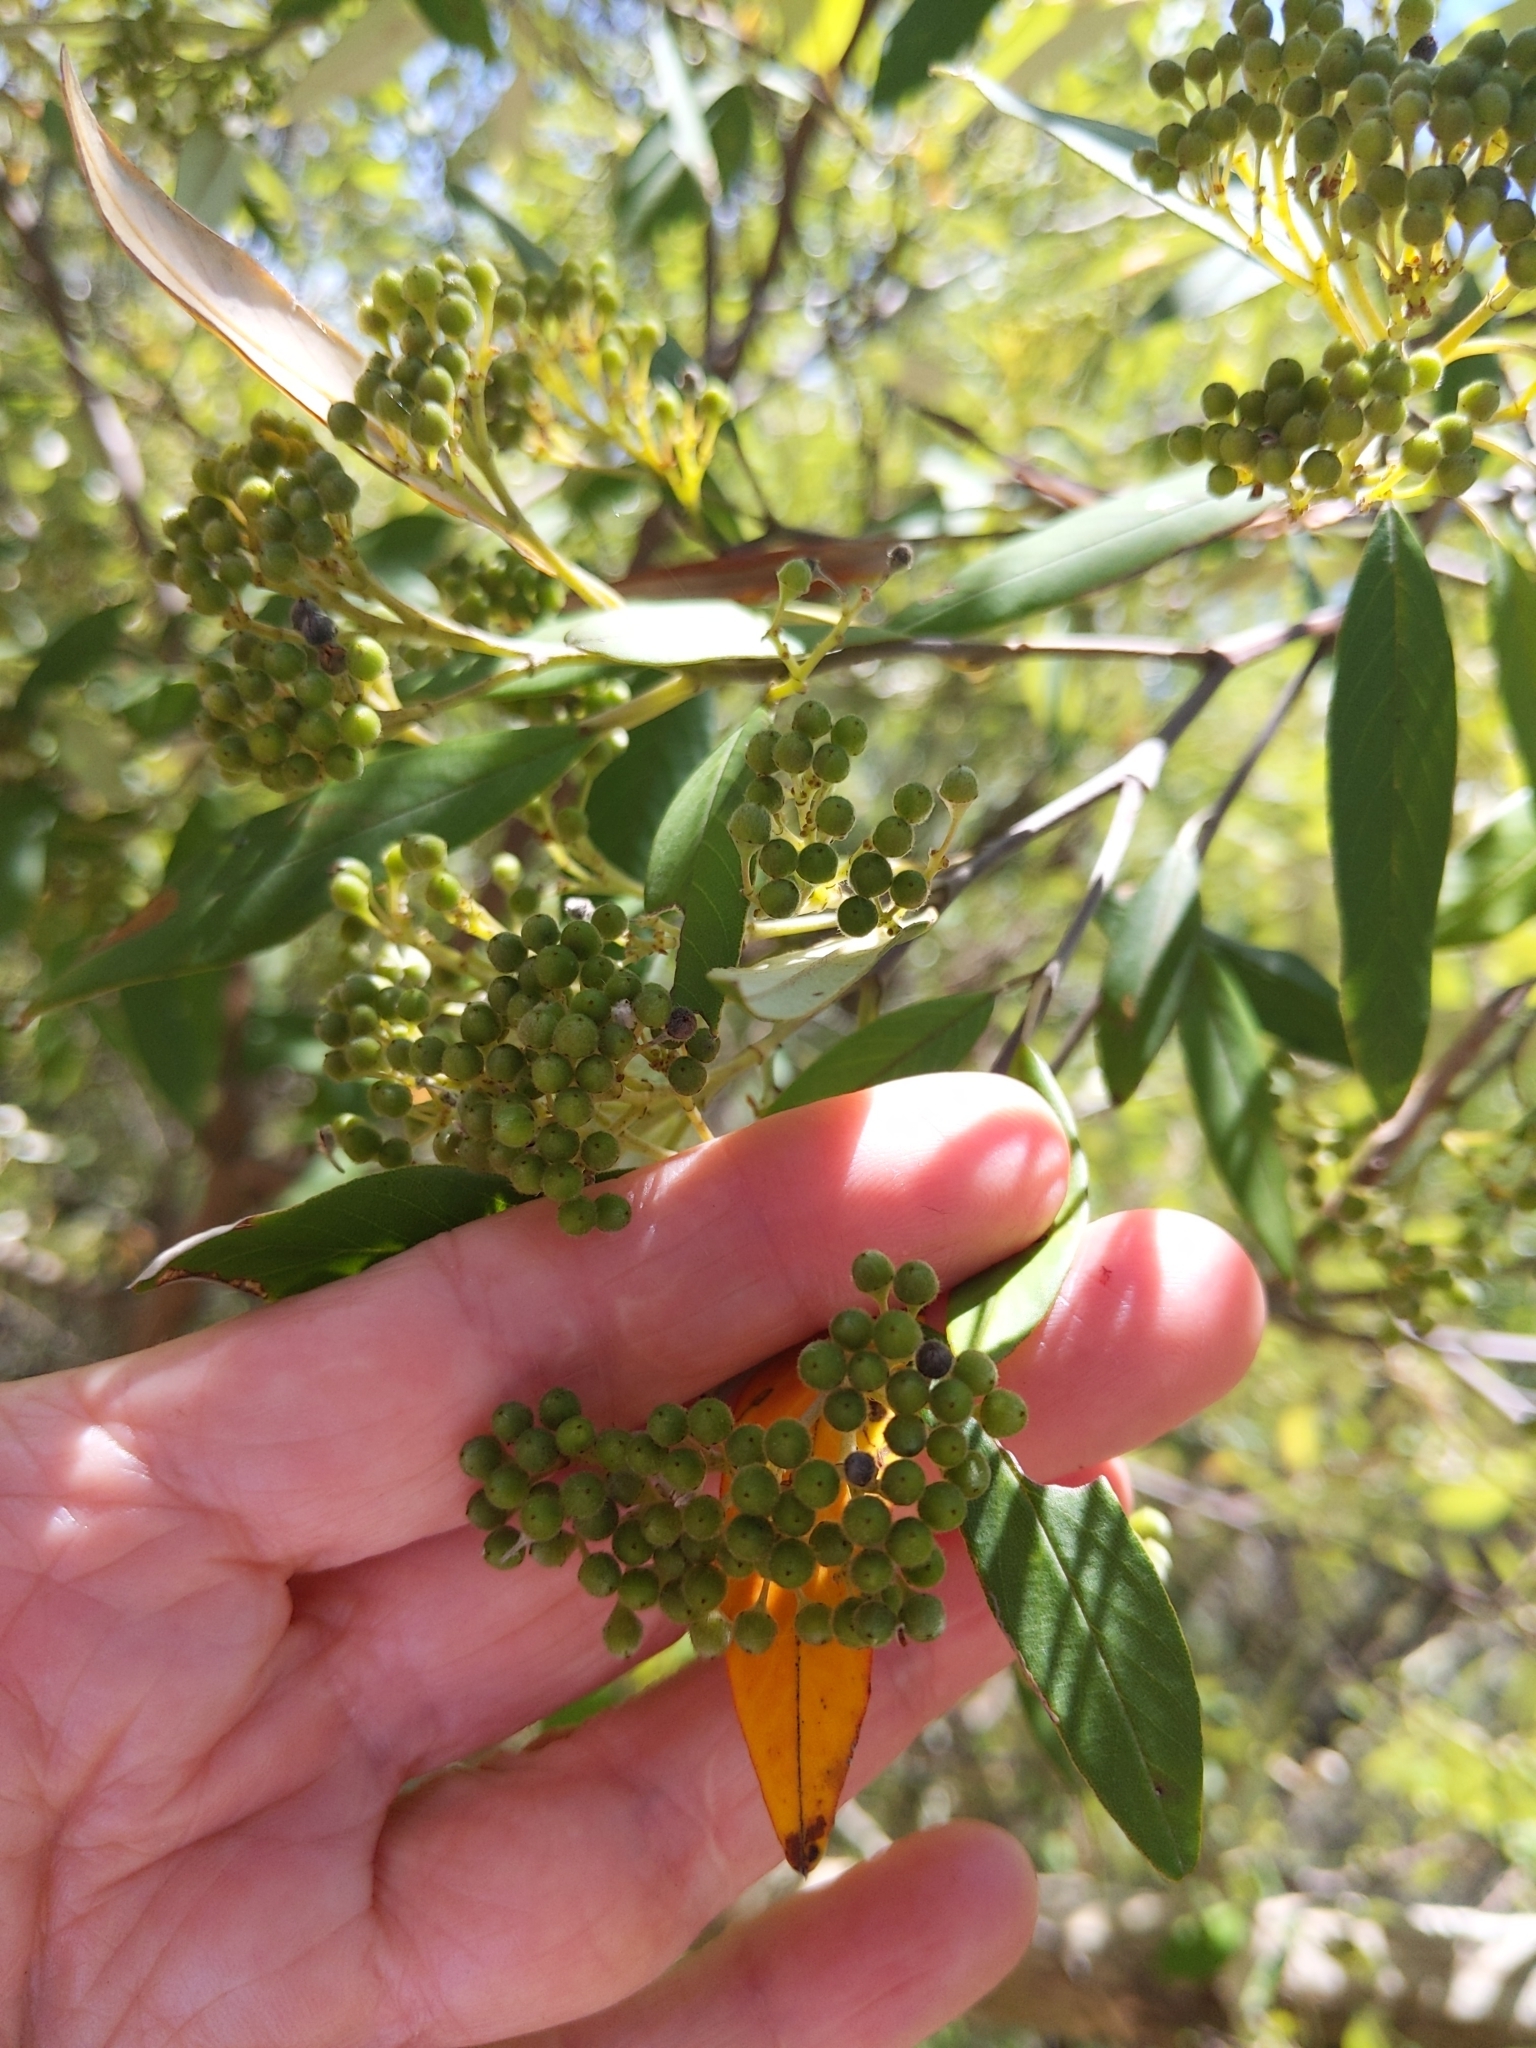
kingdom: Plantae
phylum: Tracheophyta
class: Magnoliopsida
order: Rosales
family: Rhamnaceae
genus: Alphitonia
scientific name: Alphitonia excelsa
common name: Red ash
